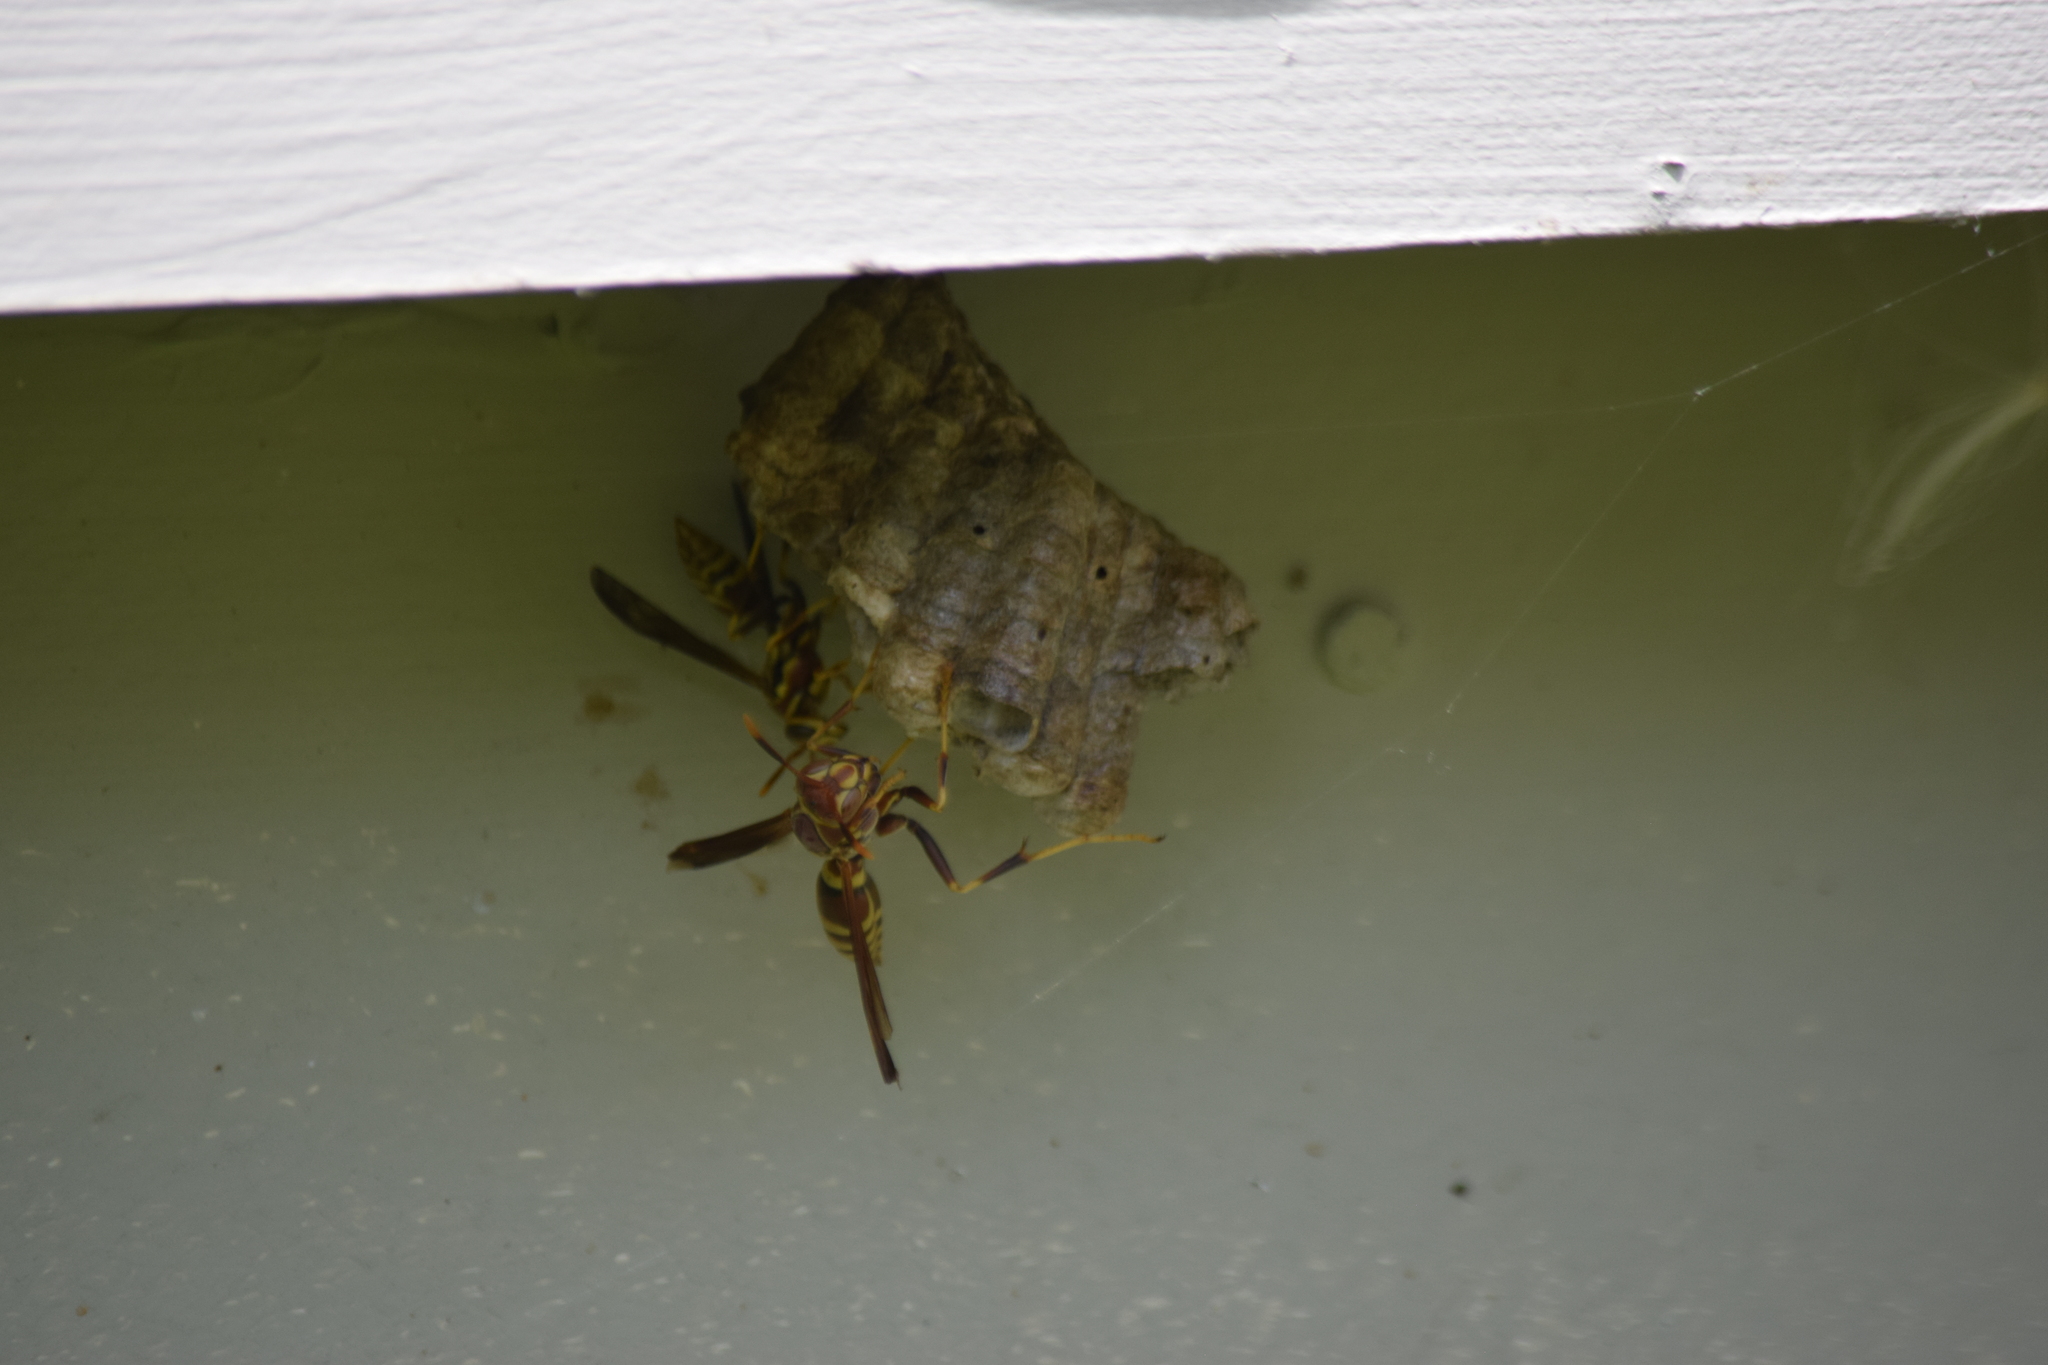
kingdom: Animalia
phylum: Arthropoda
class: Insecta
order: Hymenoptera
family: Eumenidae
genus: Polistes
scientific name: Polistes exclamans
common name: Paper wasp
